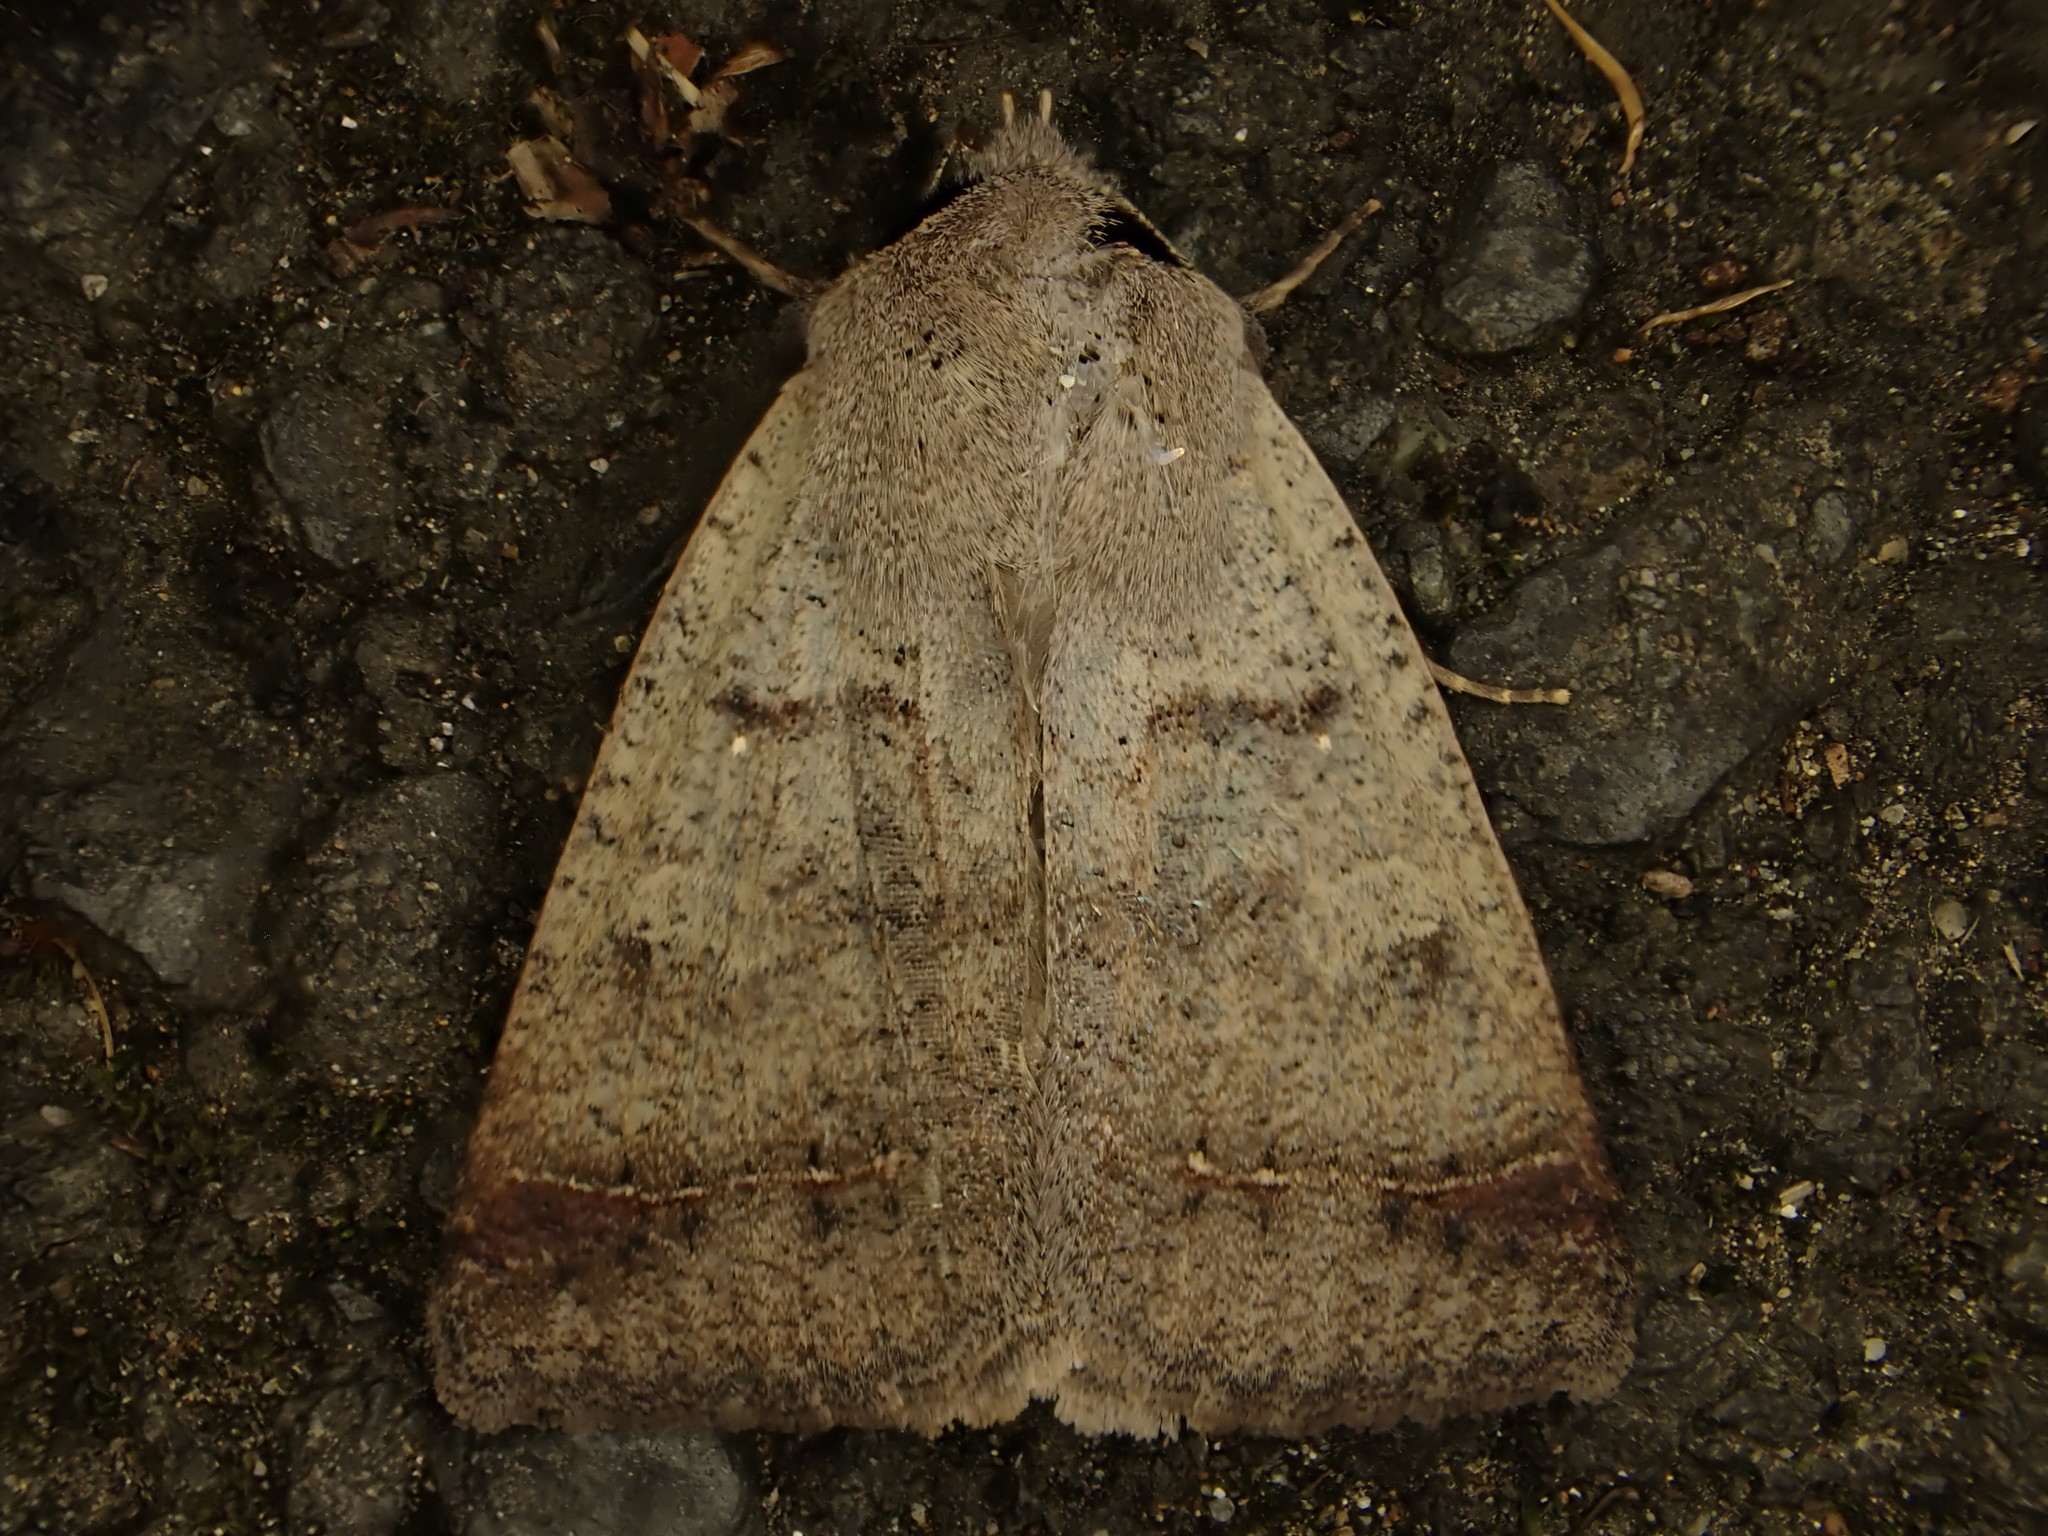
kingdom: Animalia
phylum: Arthropoda
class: Insecta
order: Lepidoptera
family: Erebidae
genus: Pantydia
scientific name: Pantydia sparsa
